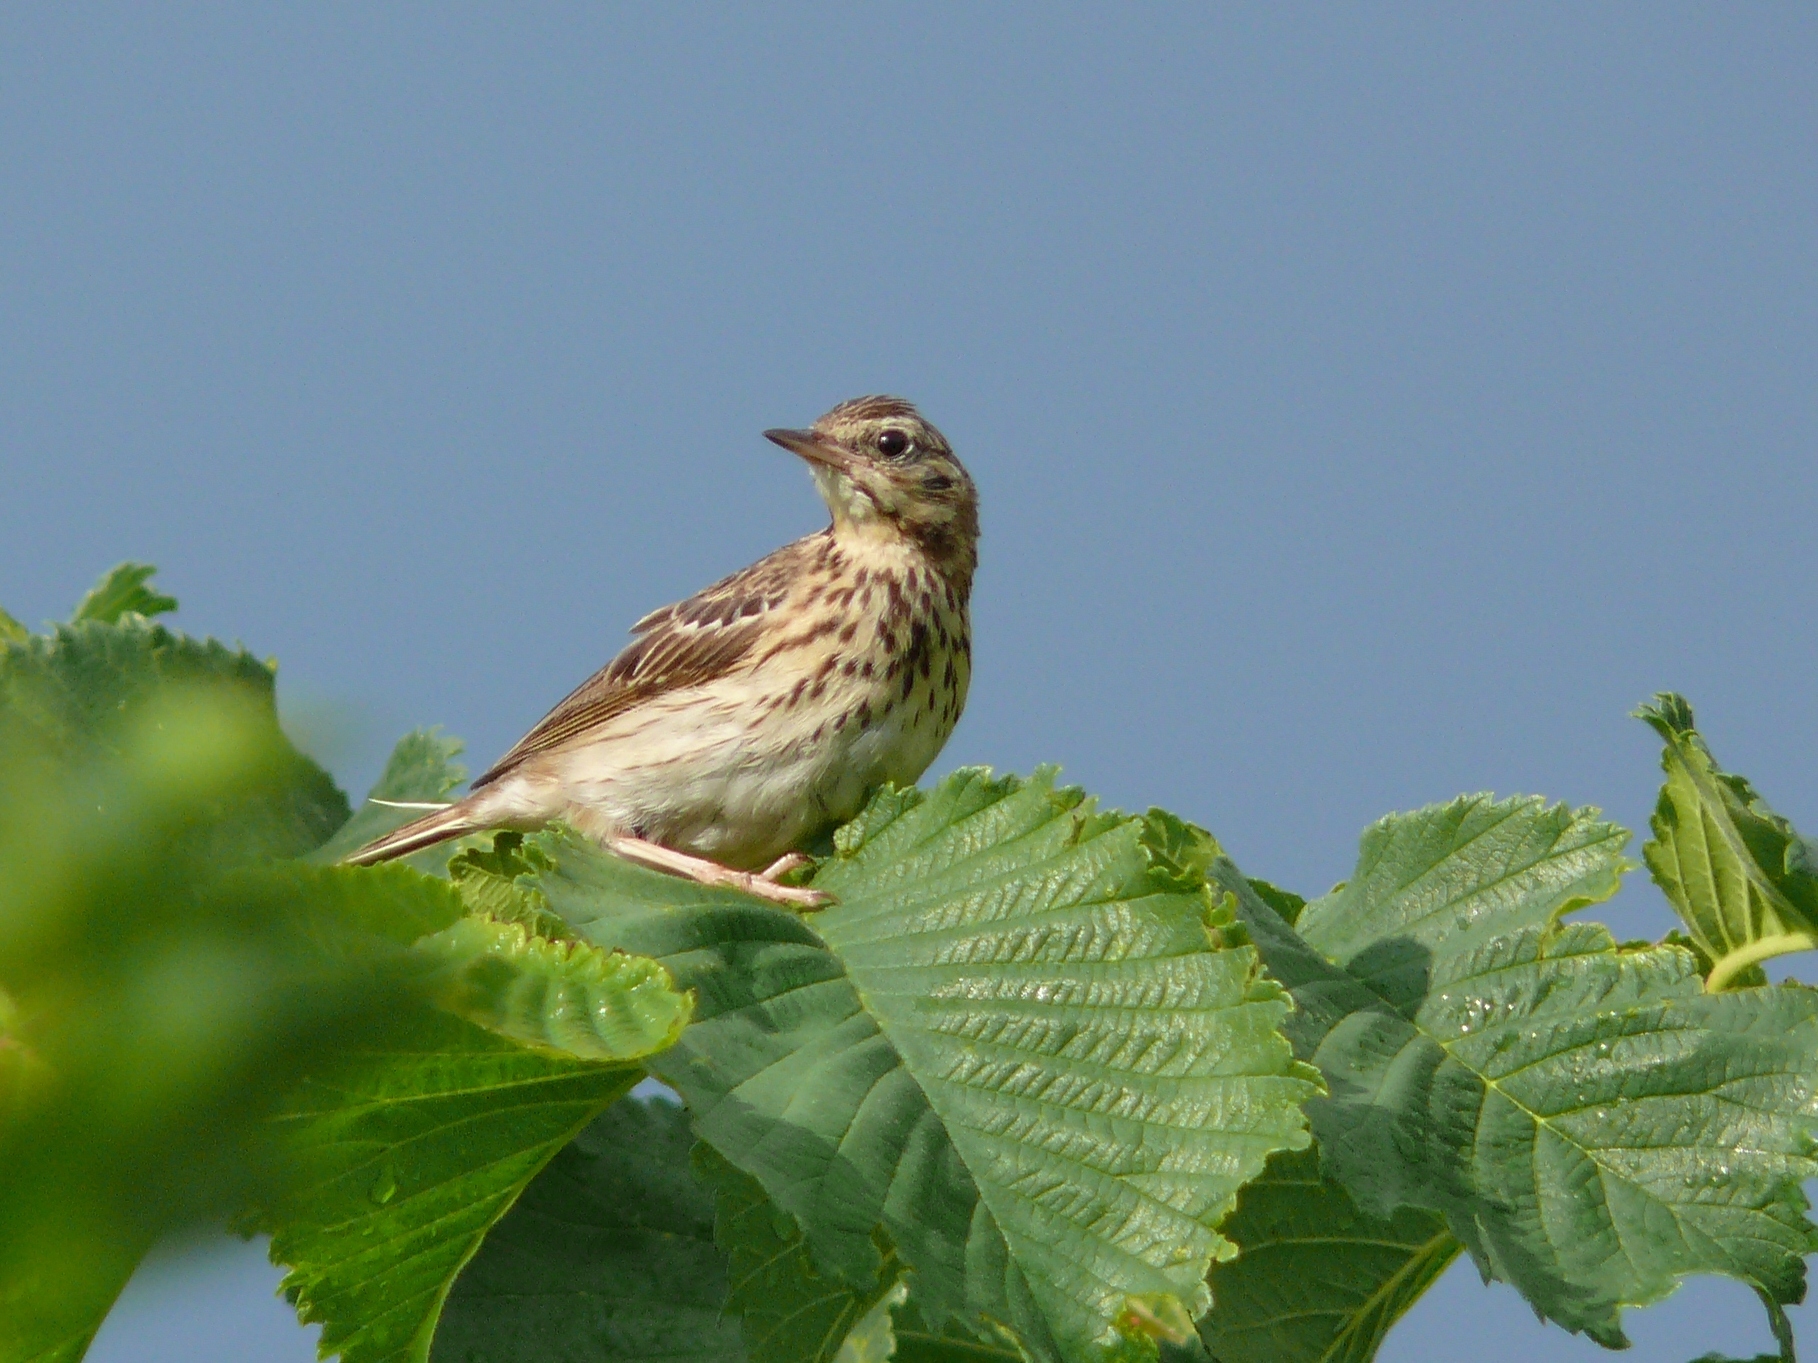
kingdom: Animalia
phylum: Chordata
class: Aves
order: Passeriformes
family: Motacillidae
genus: Anthus
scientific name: Anthus trivialis
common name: Tree pipit
